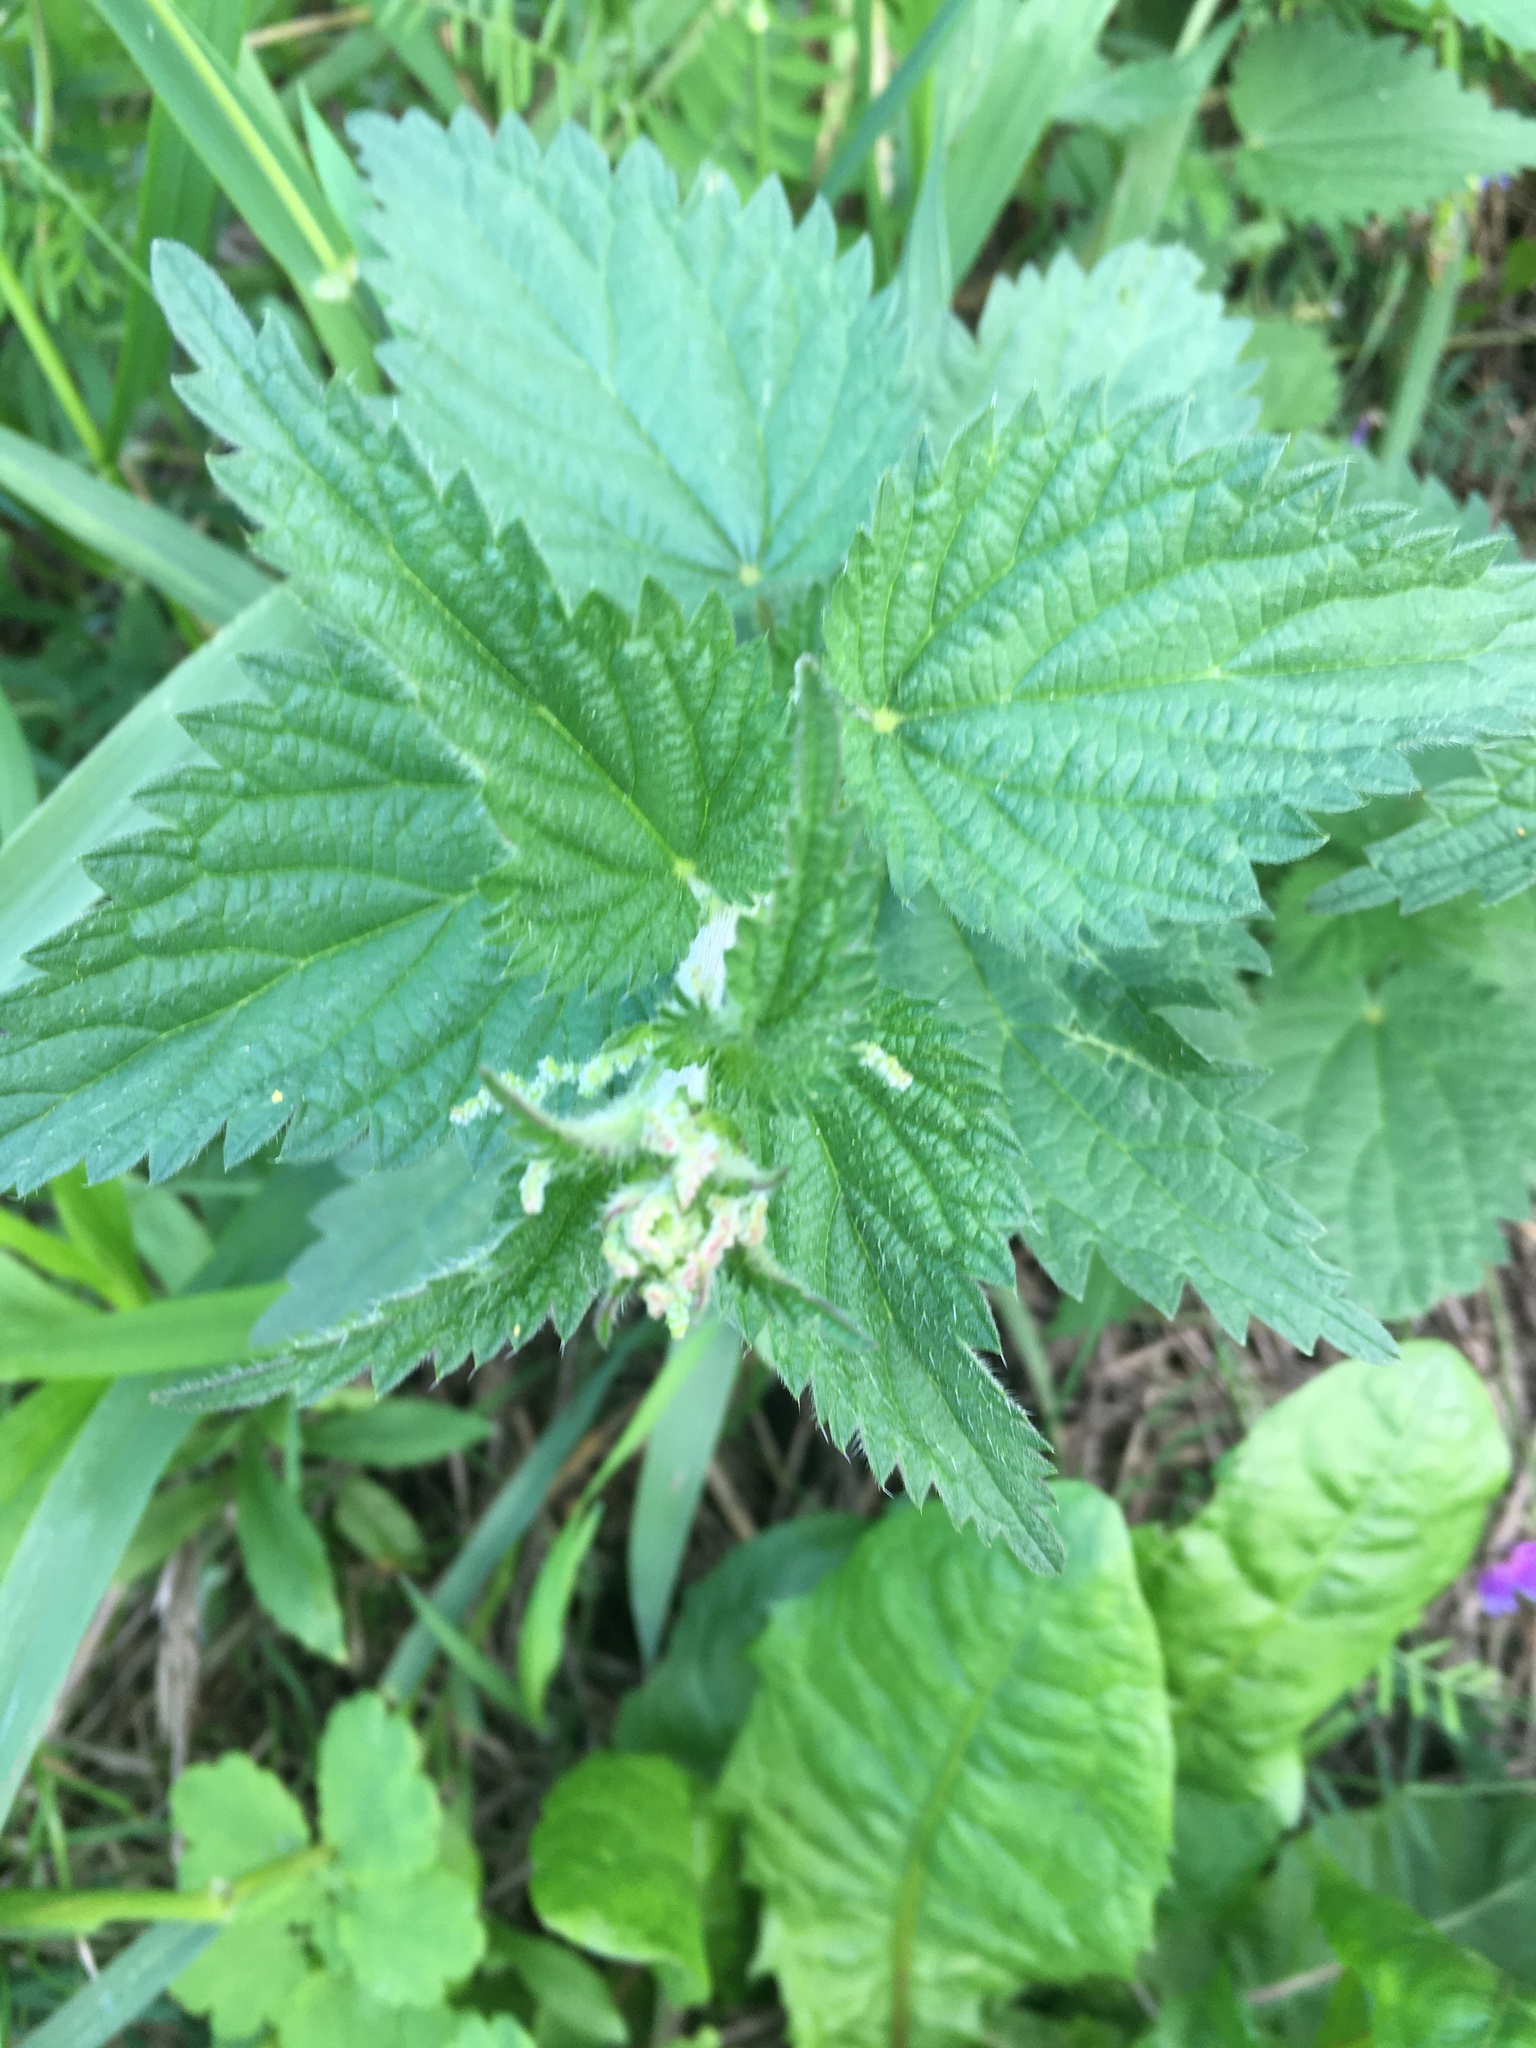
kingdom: Plantae
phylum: Tracheophyta
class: Magnoliopsida
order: Rosales
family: Urticaceae
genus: Urtica
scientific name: Urtica dioica
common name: Common nettle
